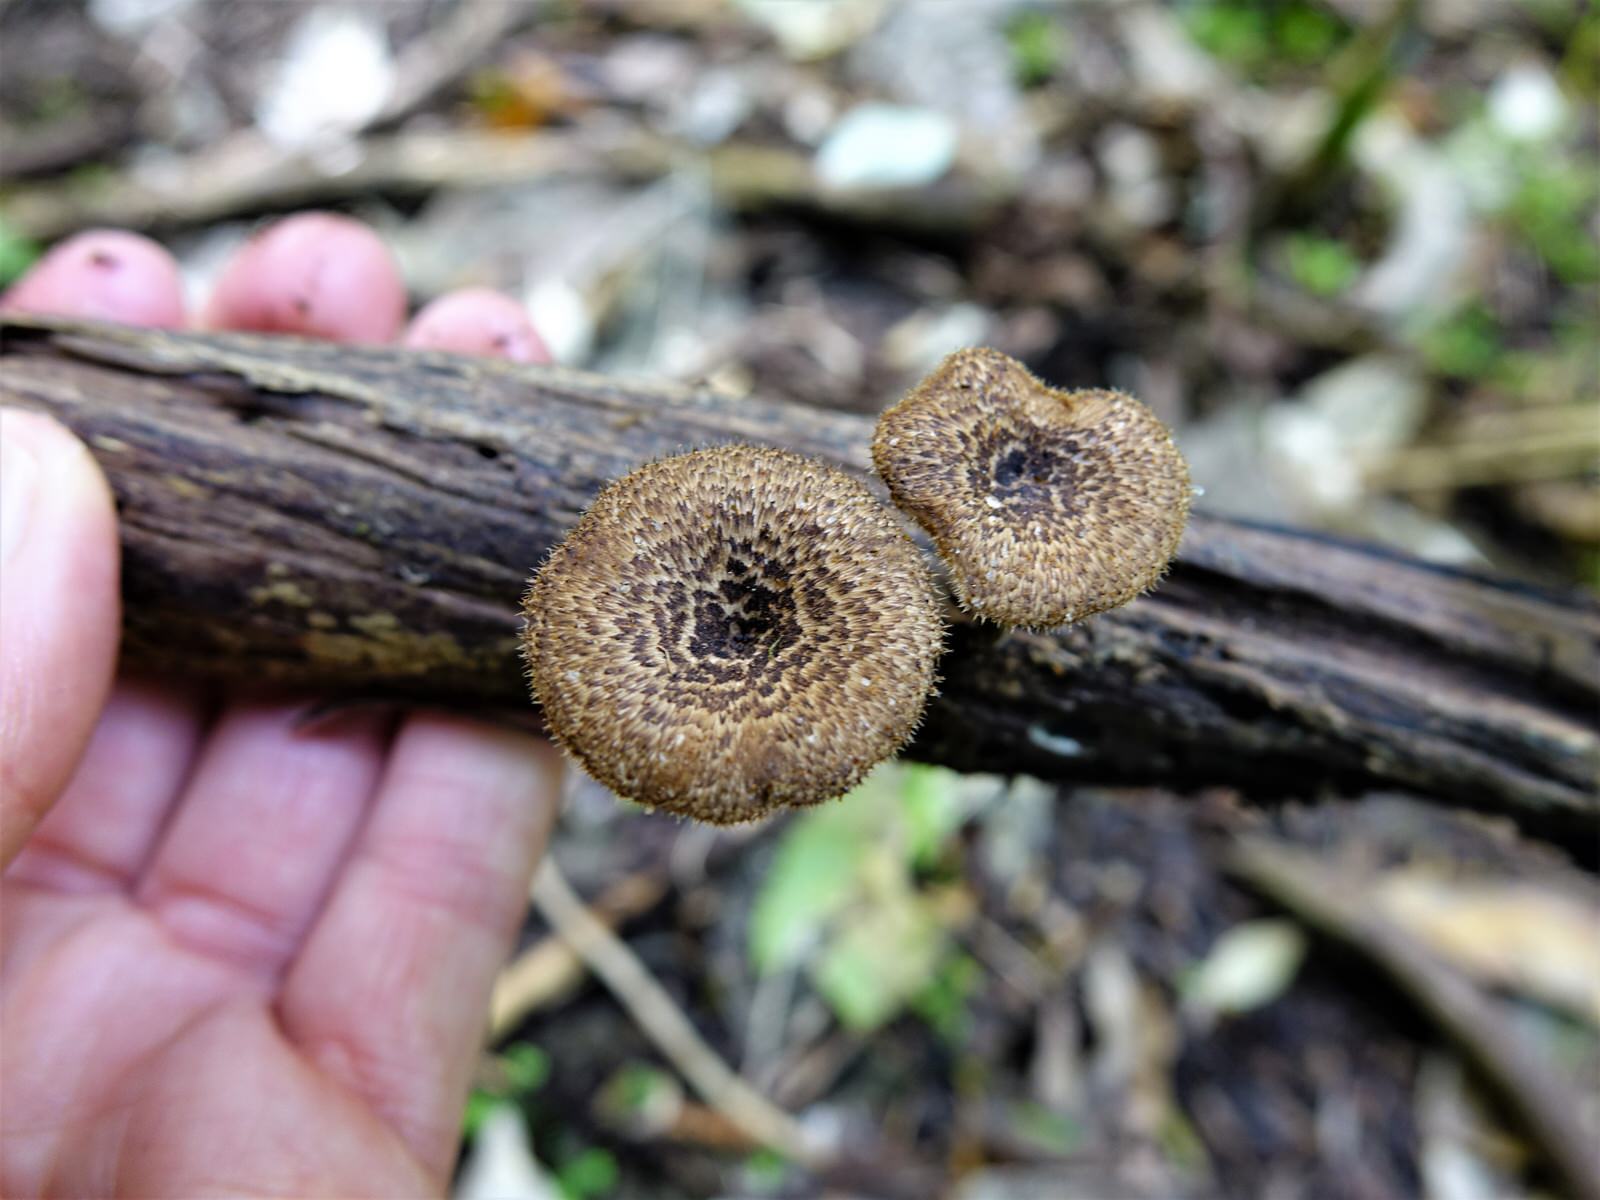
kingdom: Fungi
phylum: Basidiomycota
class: Agaricomycetes
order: Polyporales
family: Polyporaceae
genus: Lentinus
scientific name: Lentinus arcularius
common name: Spring polypore
